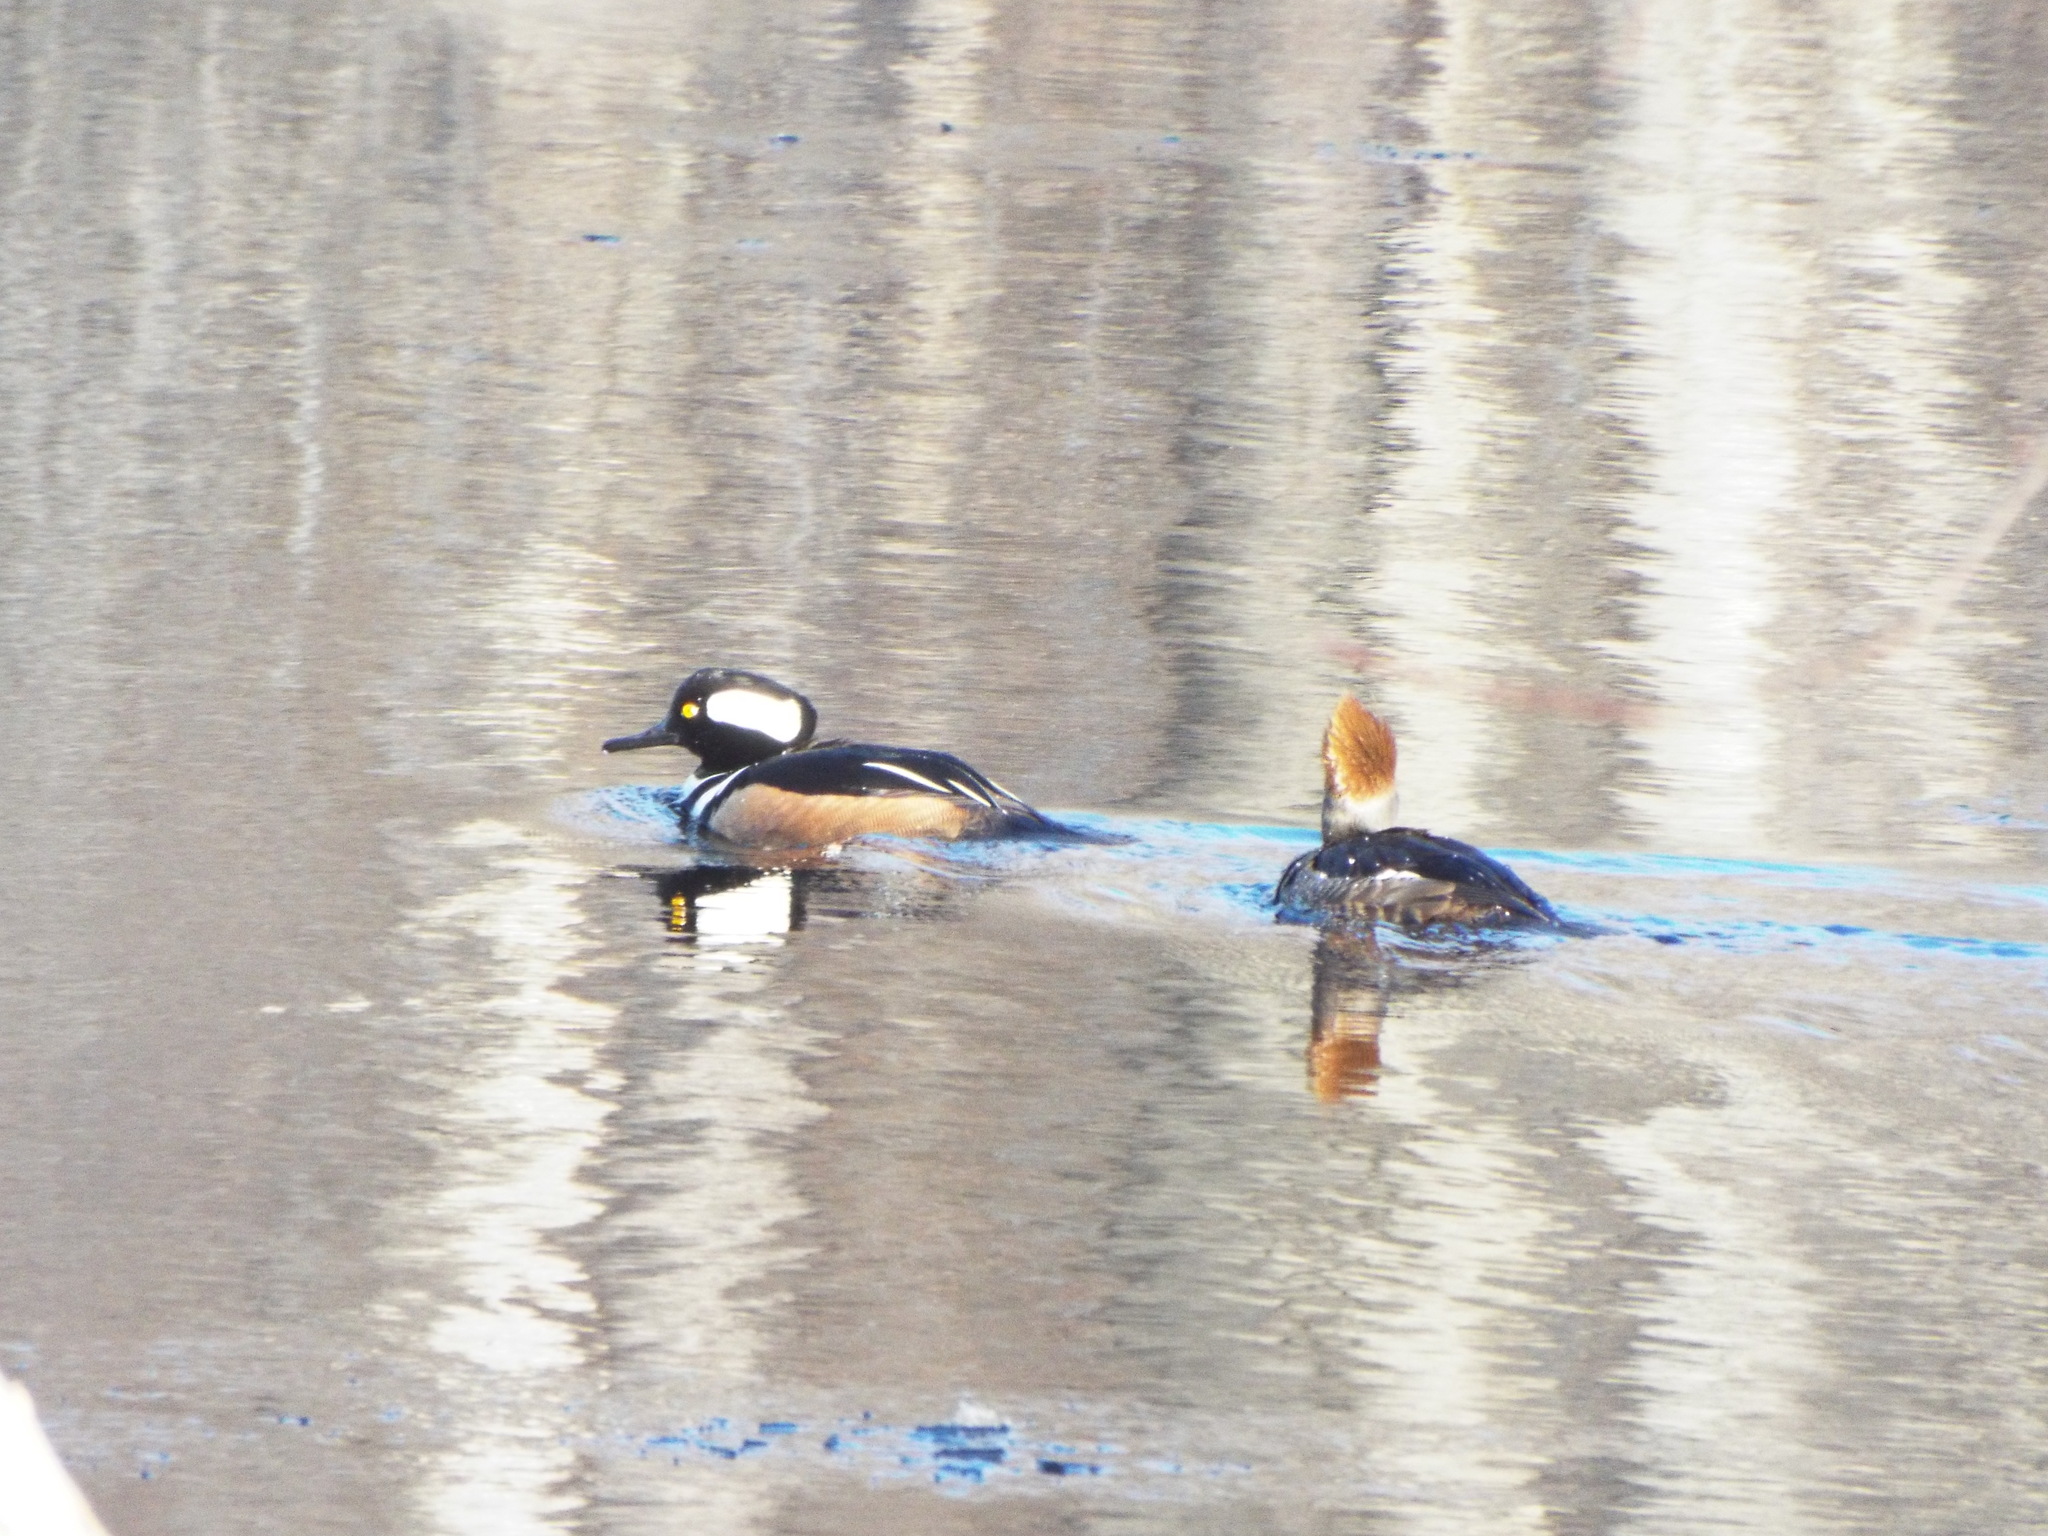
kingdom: Animalia
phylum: Chordata
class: Aves
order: Anseriformes
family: Anatidae
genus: Lophodytes
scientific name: Lophodytes cucullatus
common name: Hooded merganser
